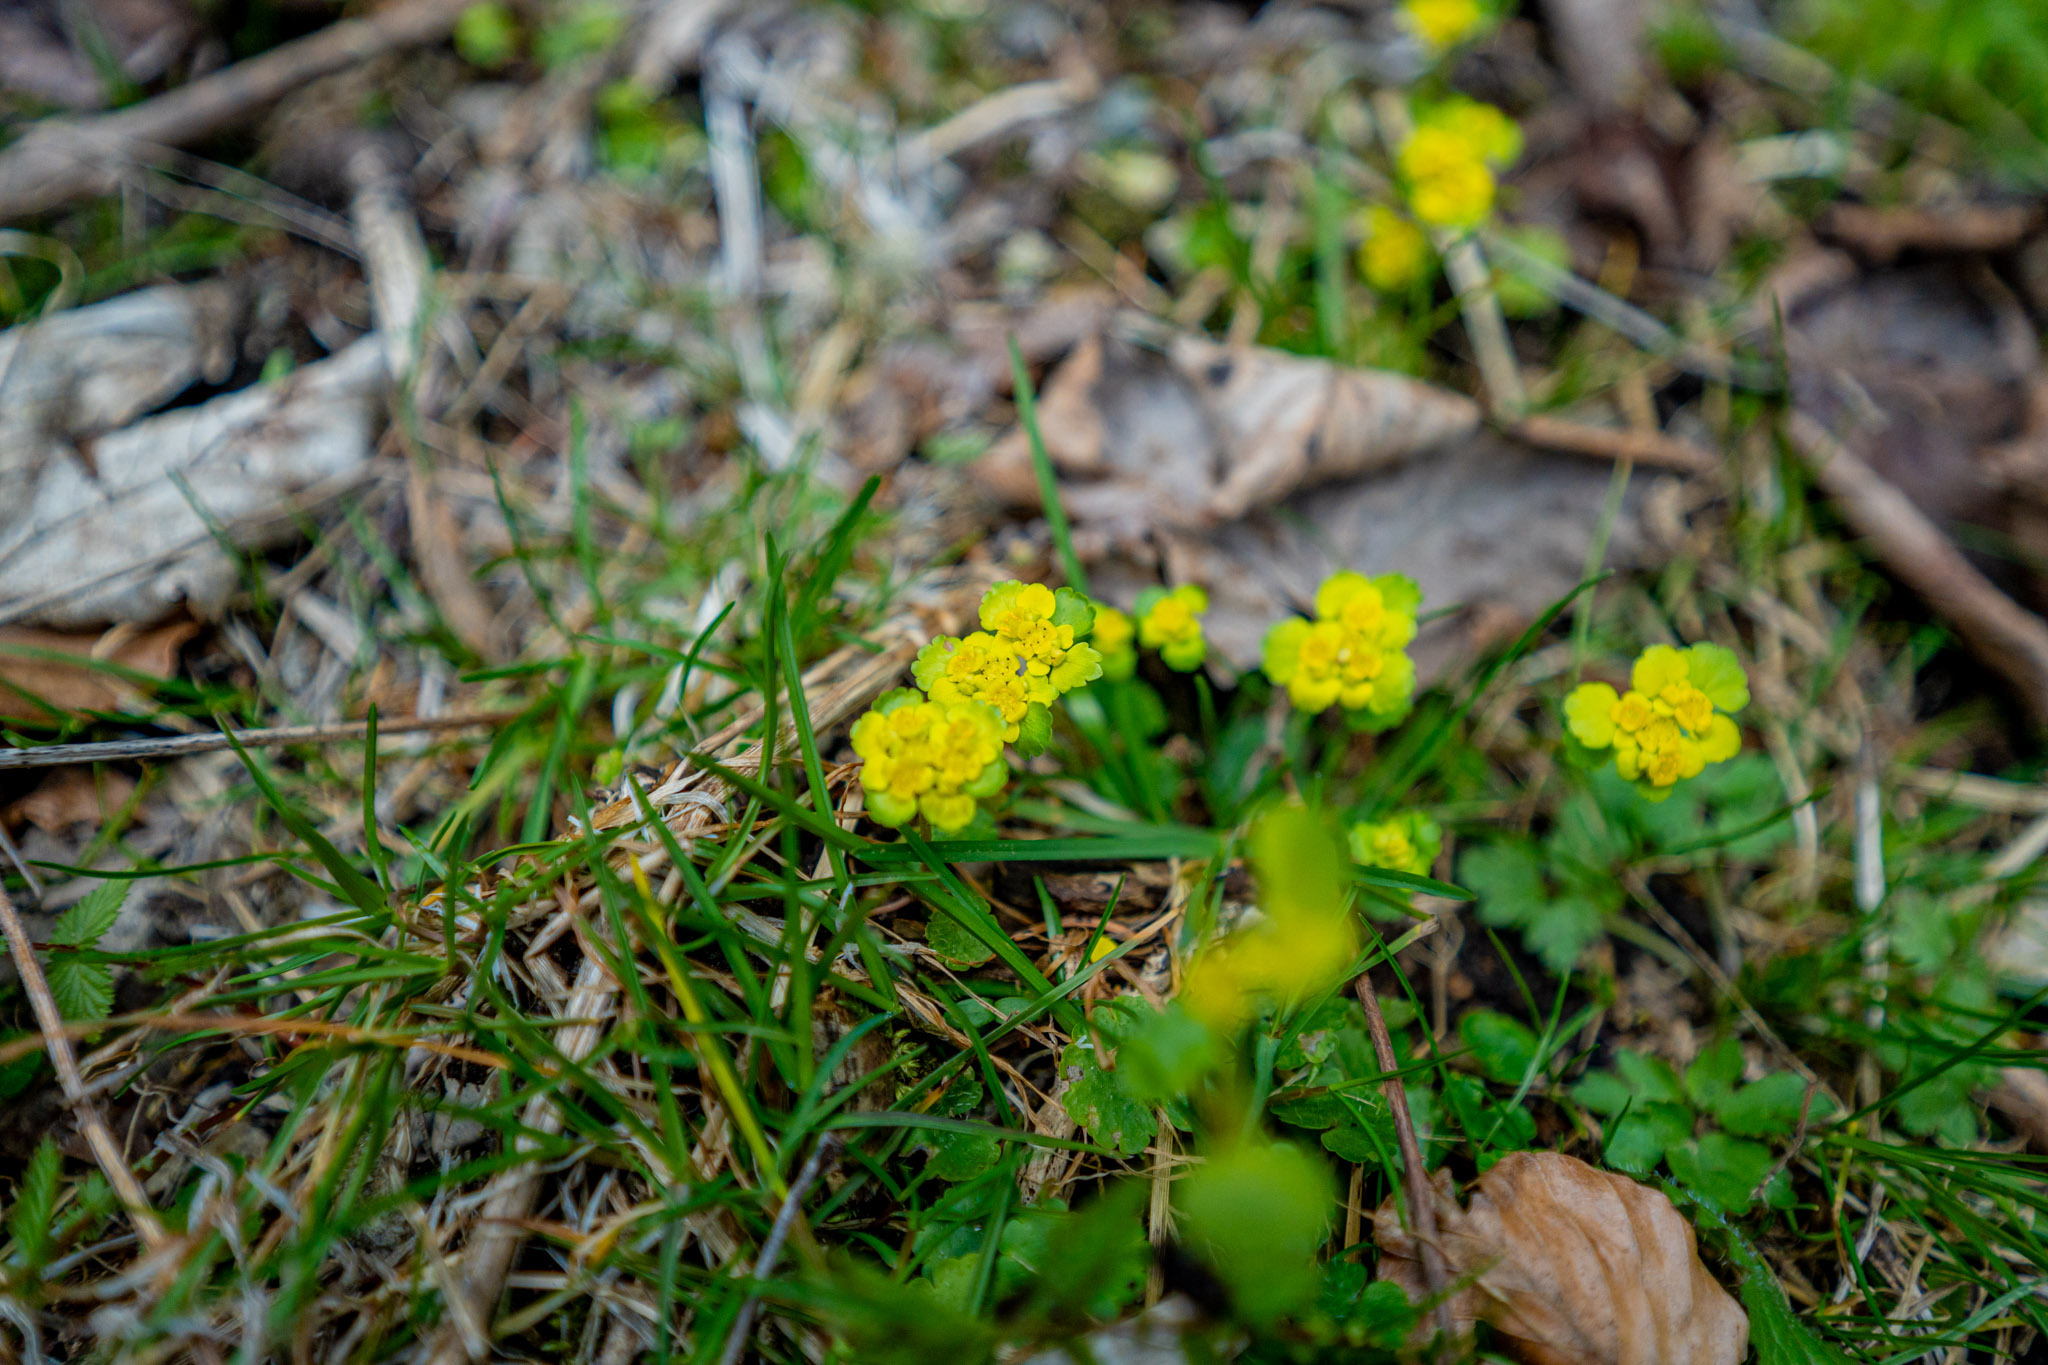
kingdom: Plantae
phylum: Tracheophyta
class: Magnoliopsida
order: Saxifragales
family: Saxifragaceae
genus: Chrysosplenium
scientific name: Chrysosplenium alternifolium
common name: Alternate-leaved golden-saxifrage
